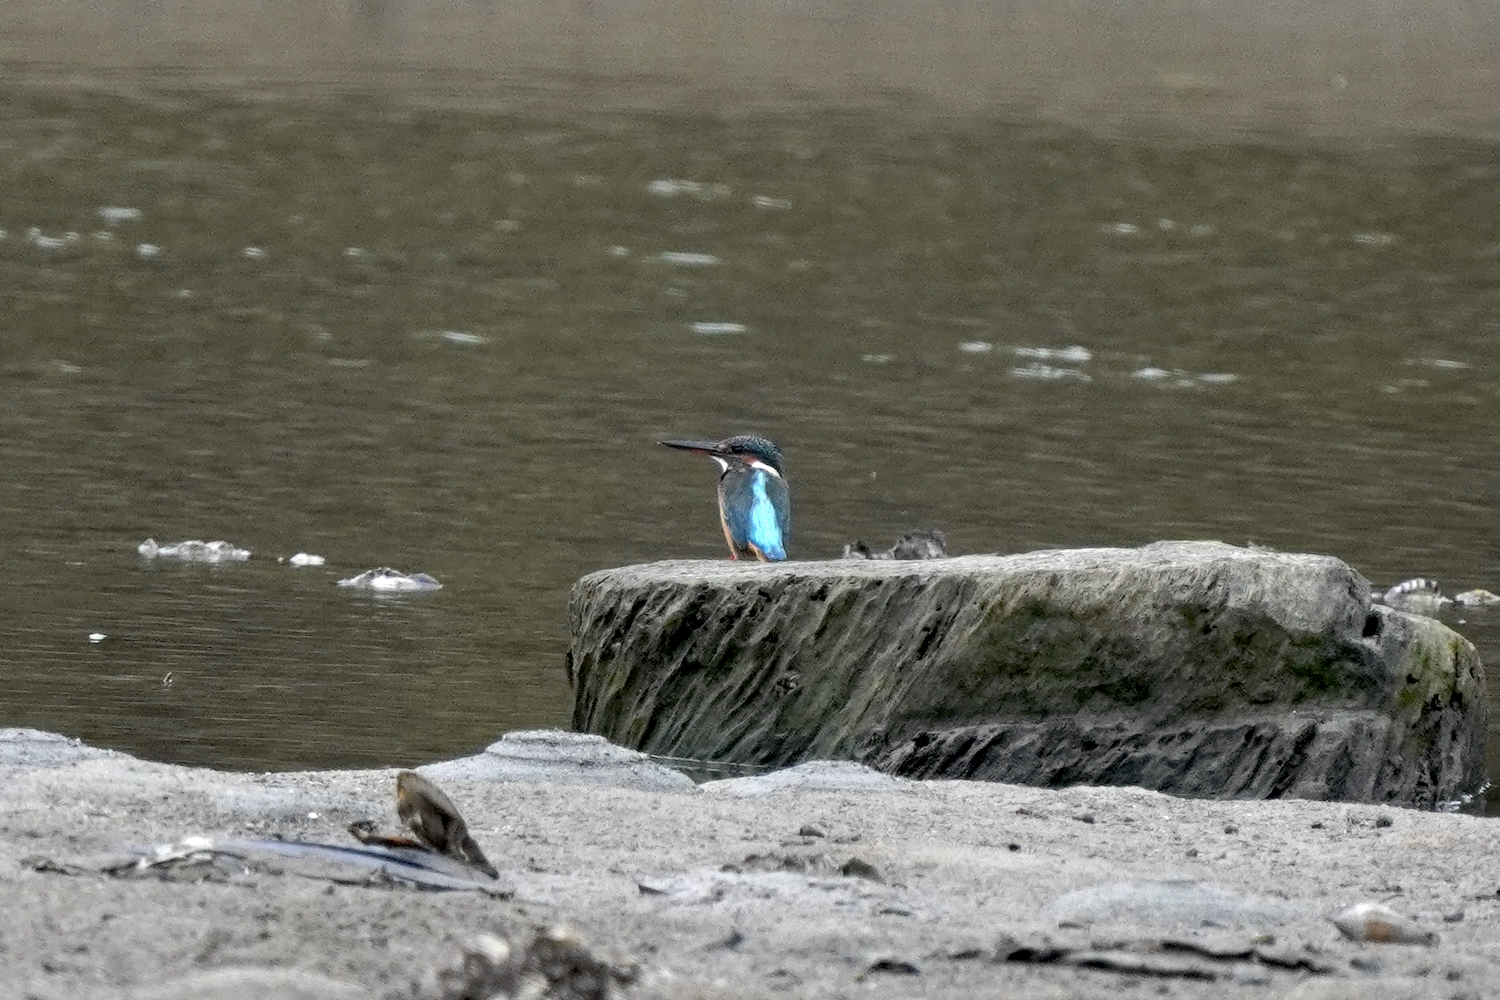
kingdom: Animalia
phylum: Chordata
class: Aves
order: Coraciiformes
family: Alcedinidae
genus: Alcedo
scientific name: Alcedo atthis
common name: Common kingfisher
